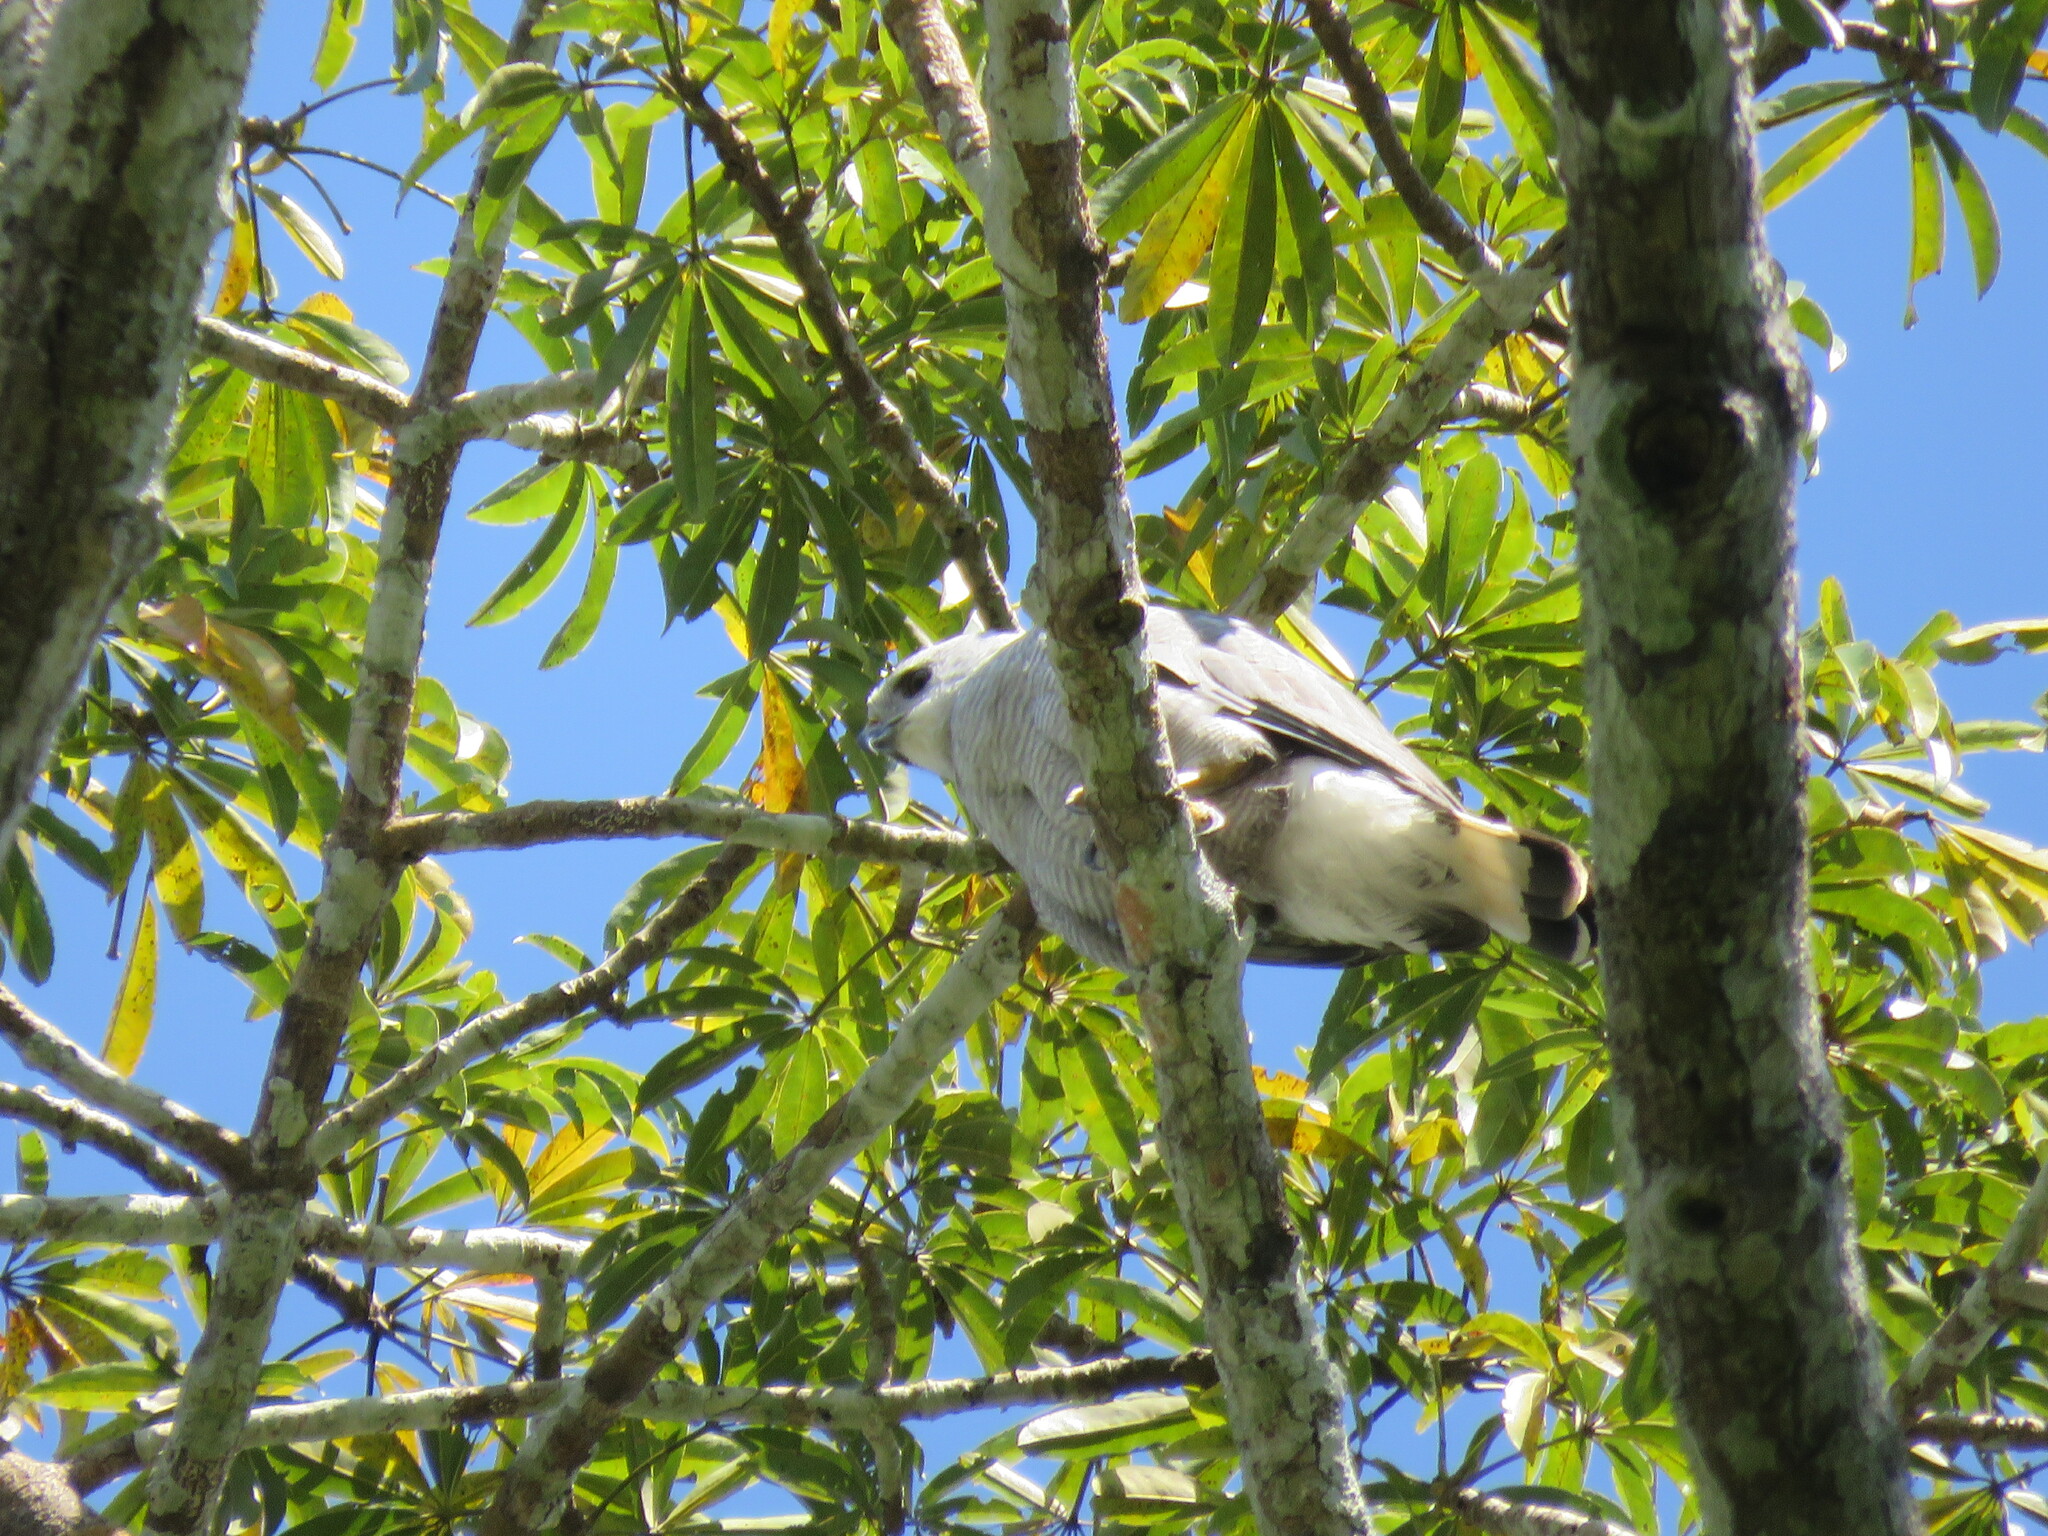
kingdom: Animalia
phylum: Chordata
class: Aves
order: Accipitriformes
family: Accipitridae
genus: Buteo
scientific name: Buteo nitidus
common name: Grey-lined hawk
